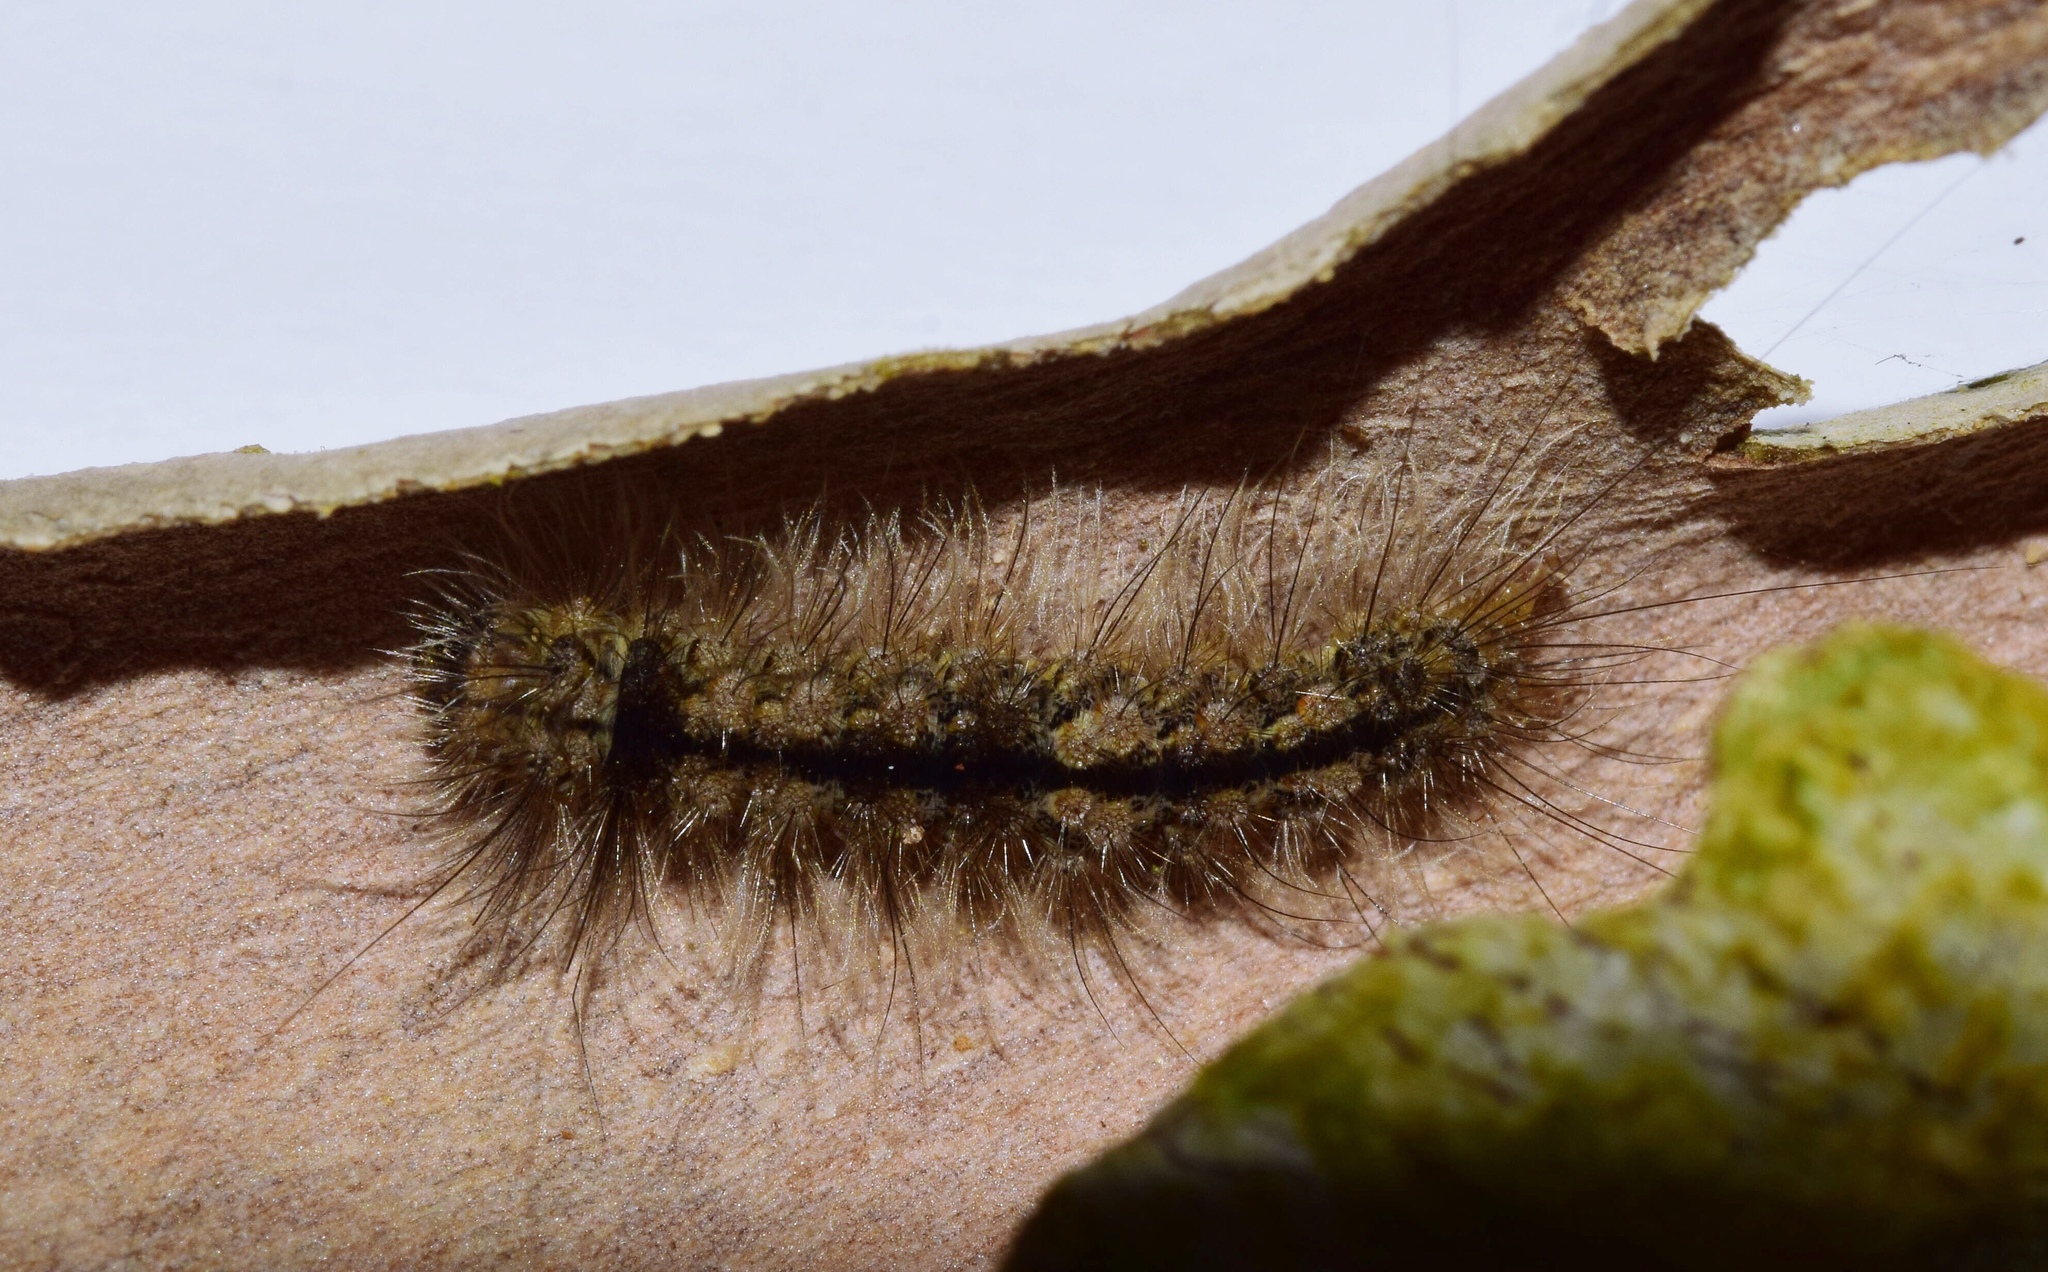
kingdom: Animalia
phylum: Arthropoda
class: Insecta
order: Lepidoptera
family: Erebidae
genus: Pseudochromatosia
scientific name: Pseudochromatosia nigrapex
